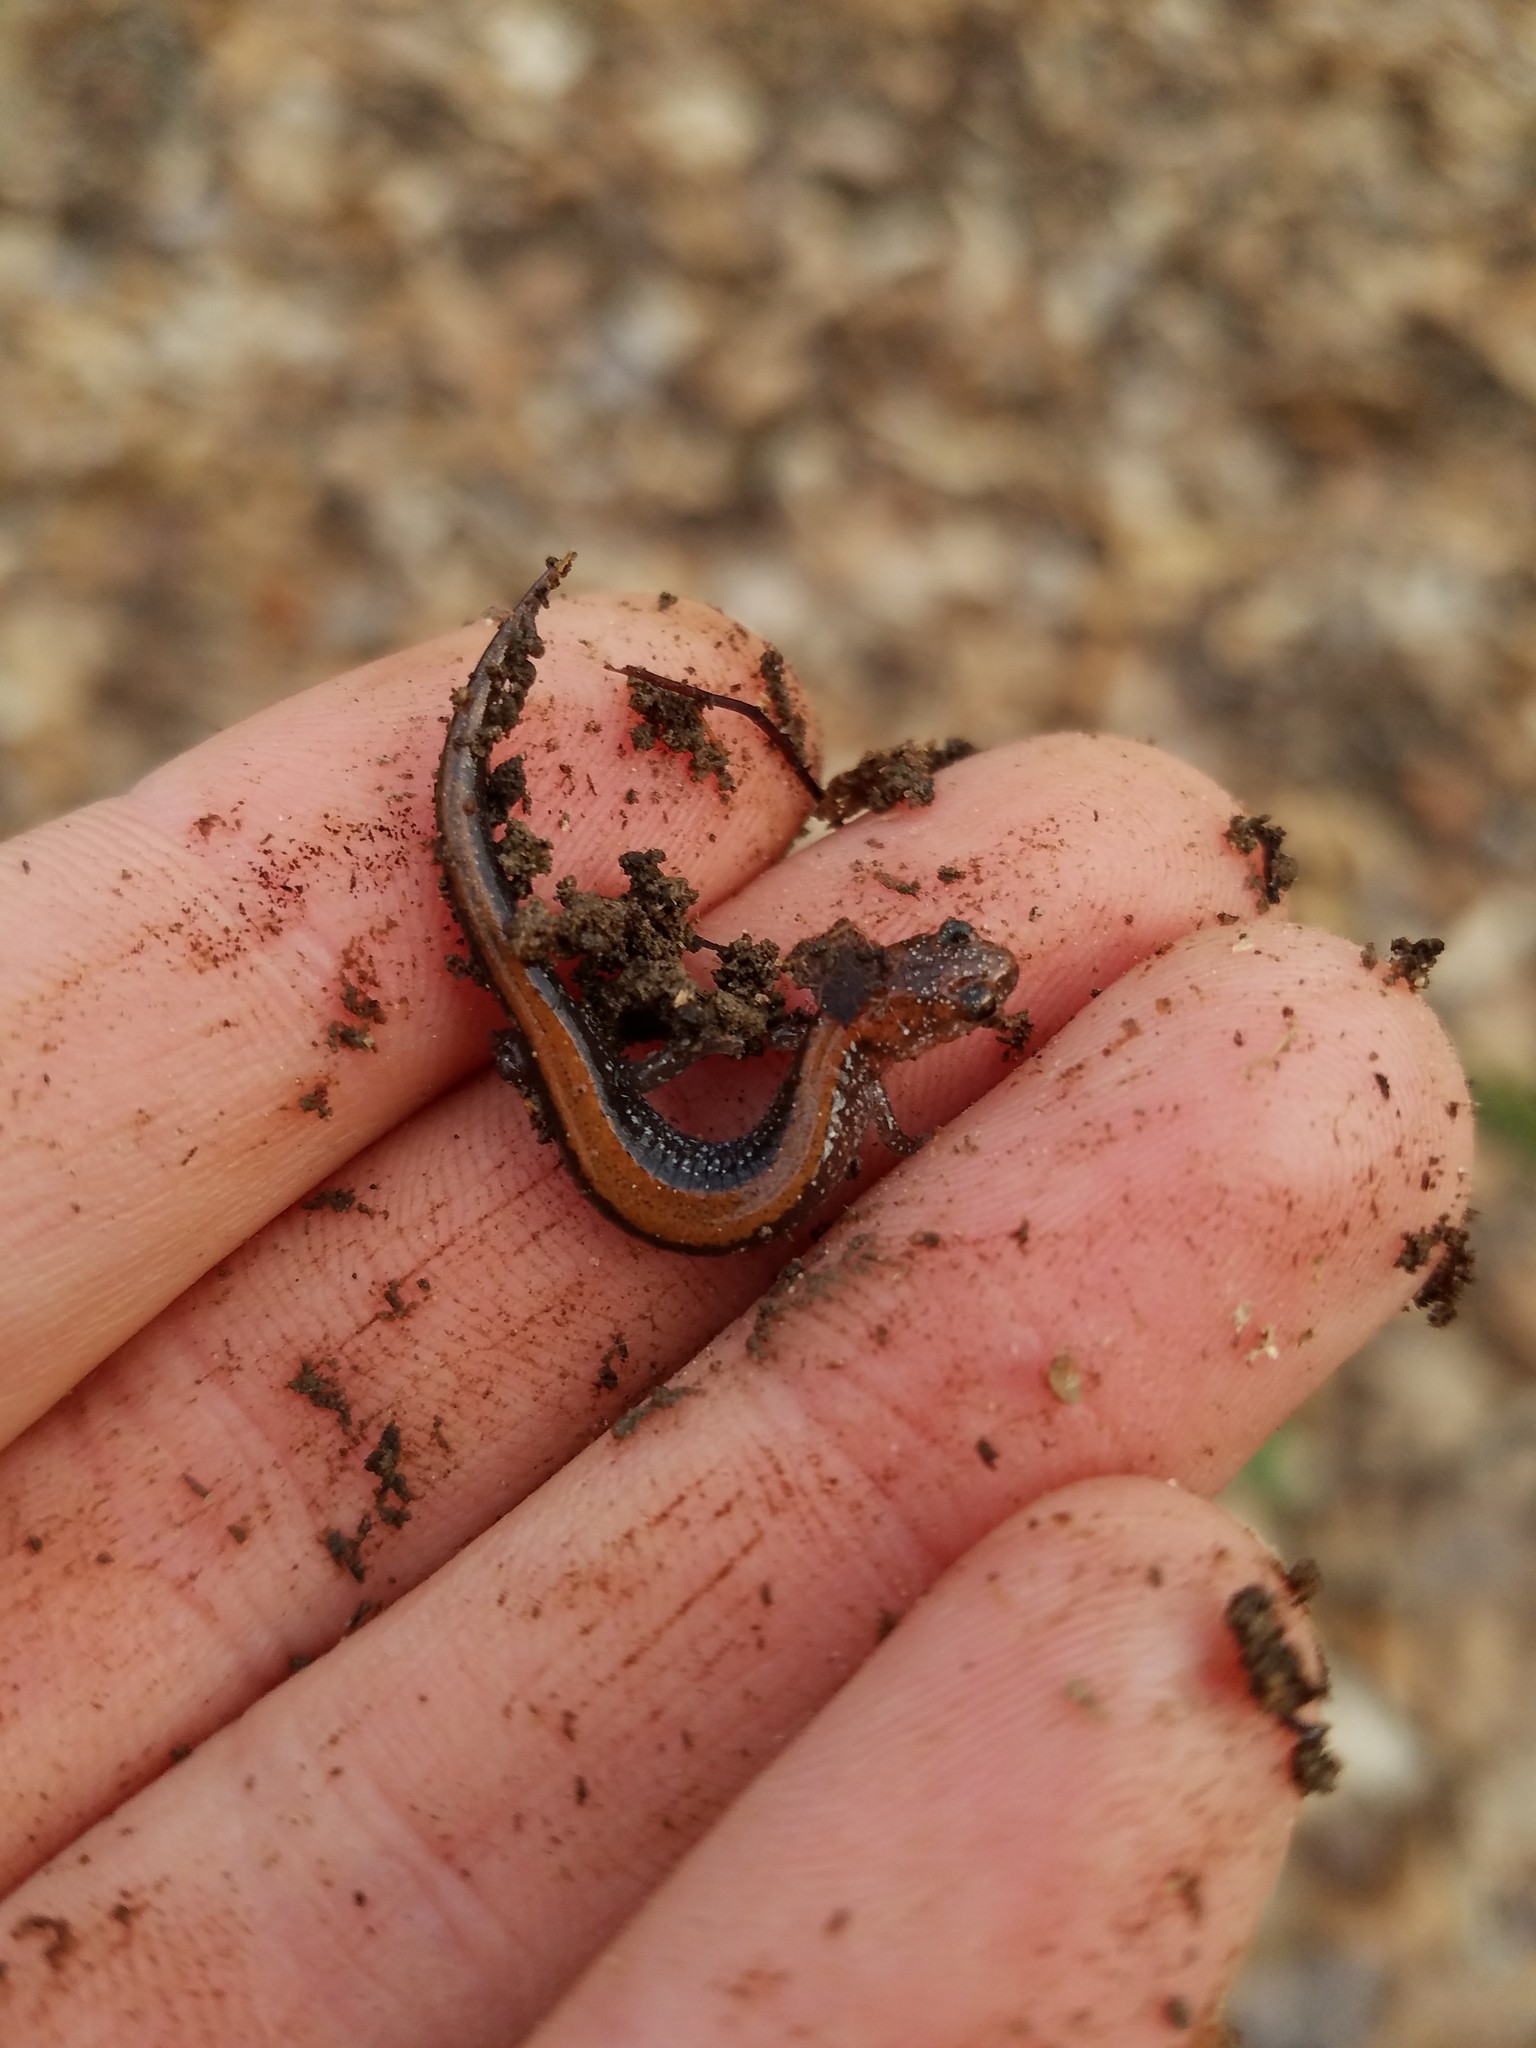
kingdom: Animalia
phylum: Chordata
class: Amphibia
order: Caudata
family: Plethodontidae
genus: Plethodon
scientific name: Plethodon cinereus
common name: Redback salamander
